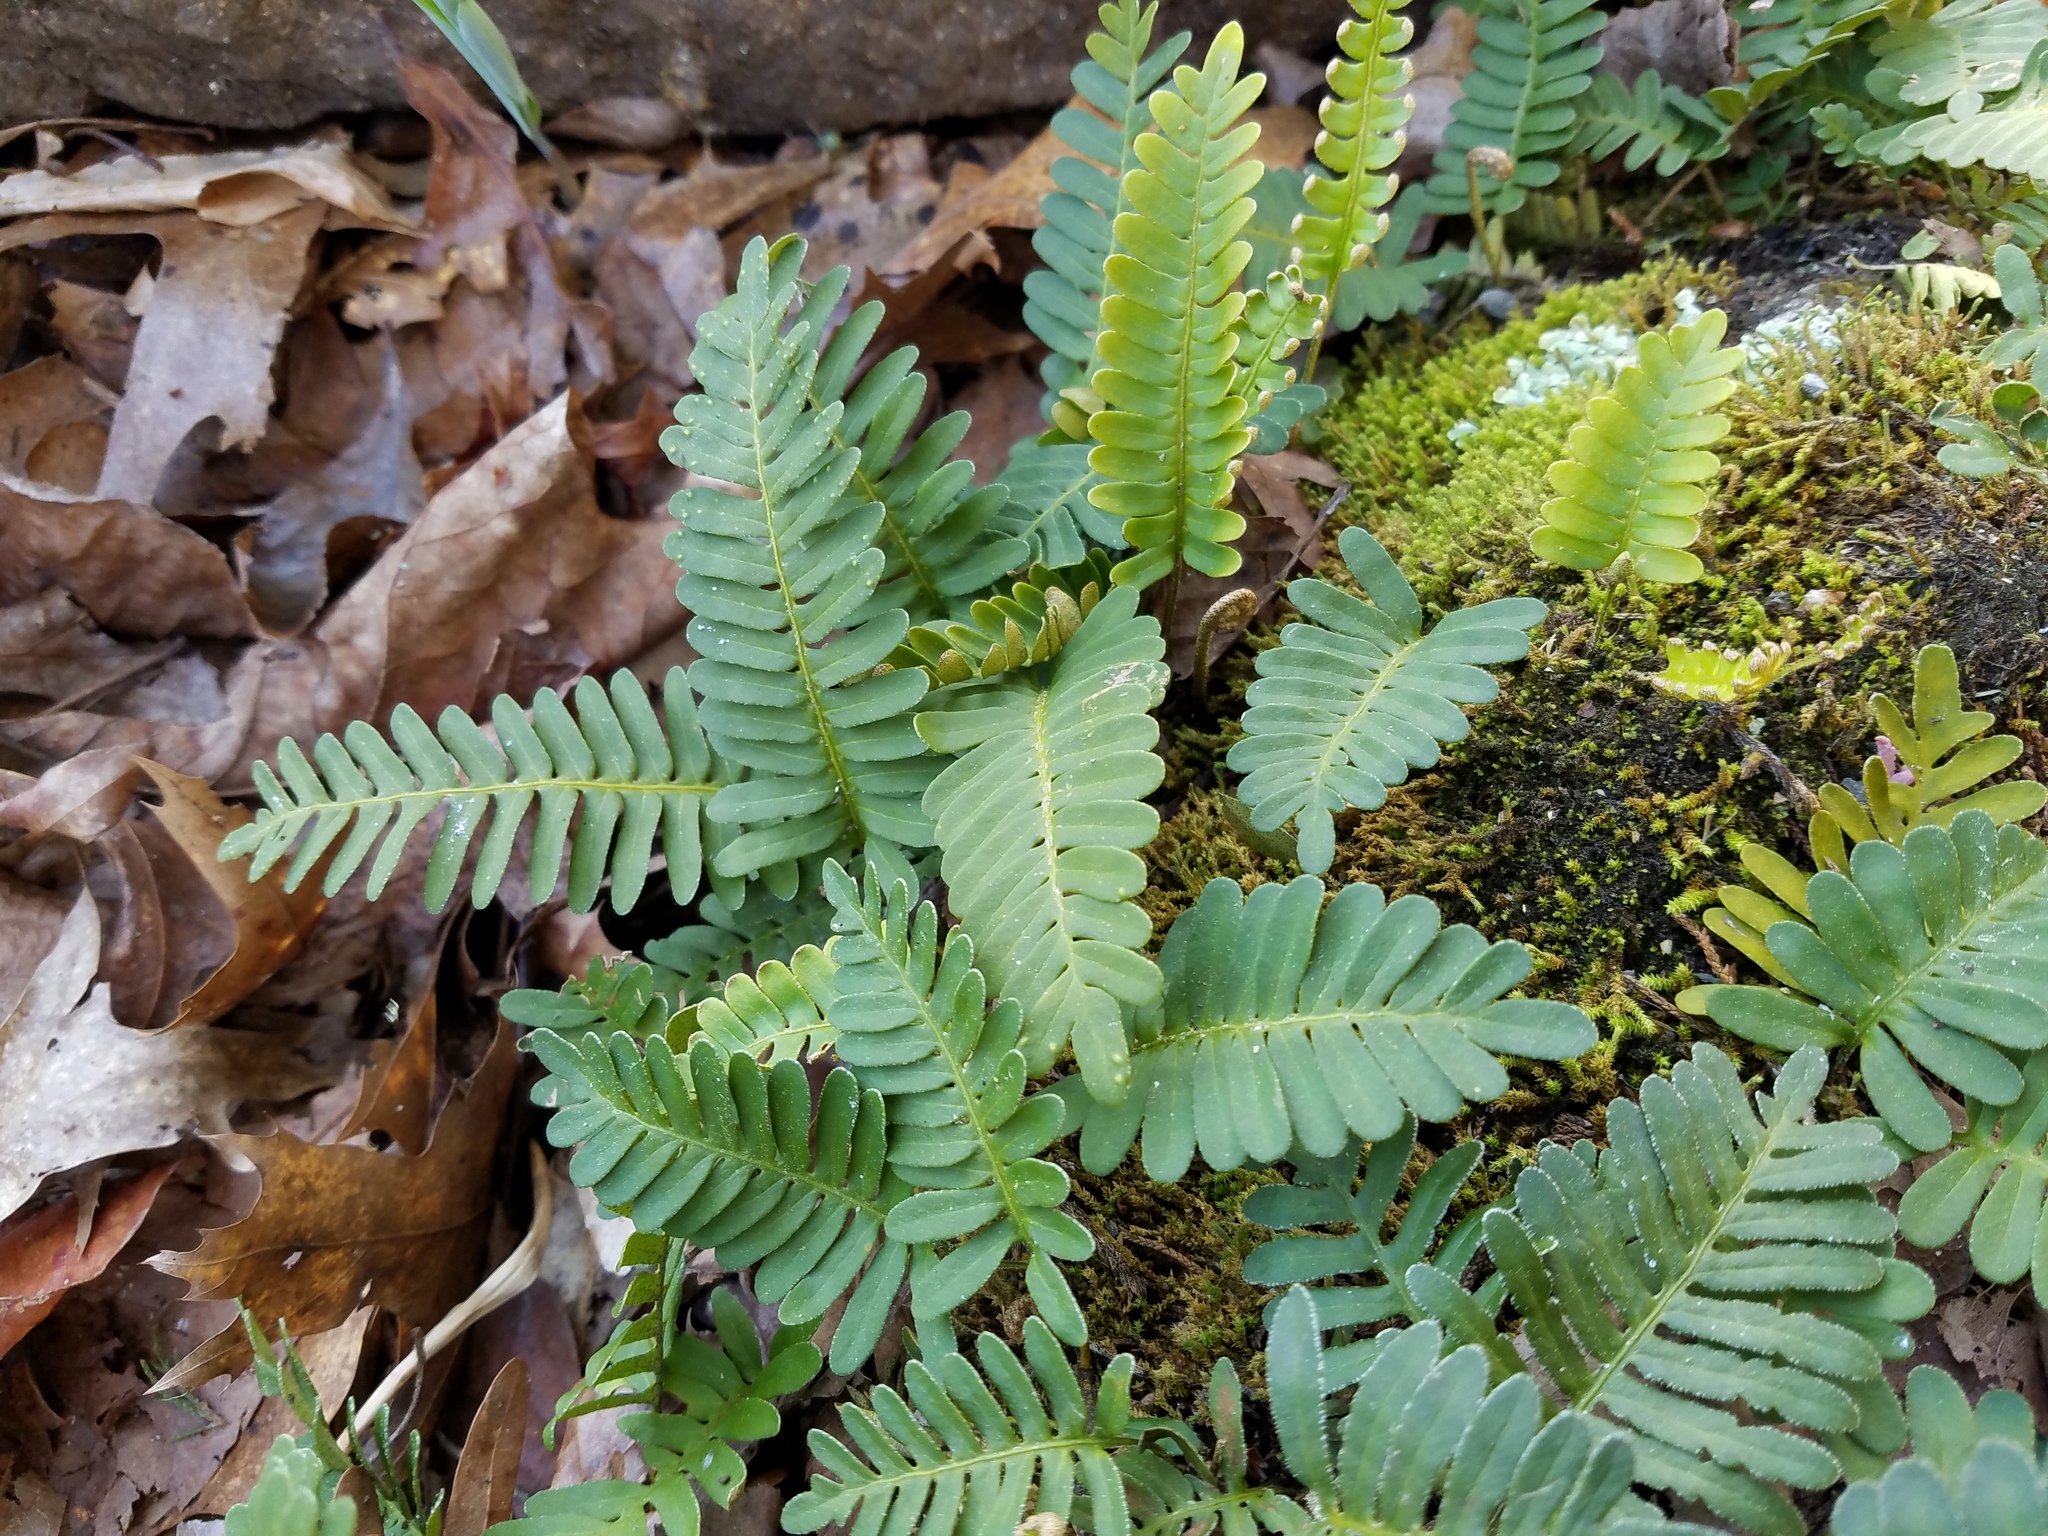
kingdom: Plantae
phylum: Tracheophyta
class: Polypodiopsida
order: Polypodiales
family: Polypodiaceae
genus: Pleopeltis
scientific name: Pleopeltis michauxiana
